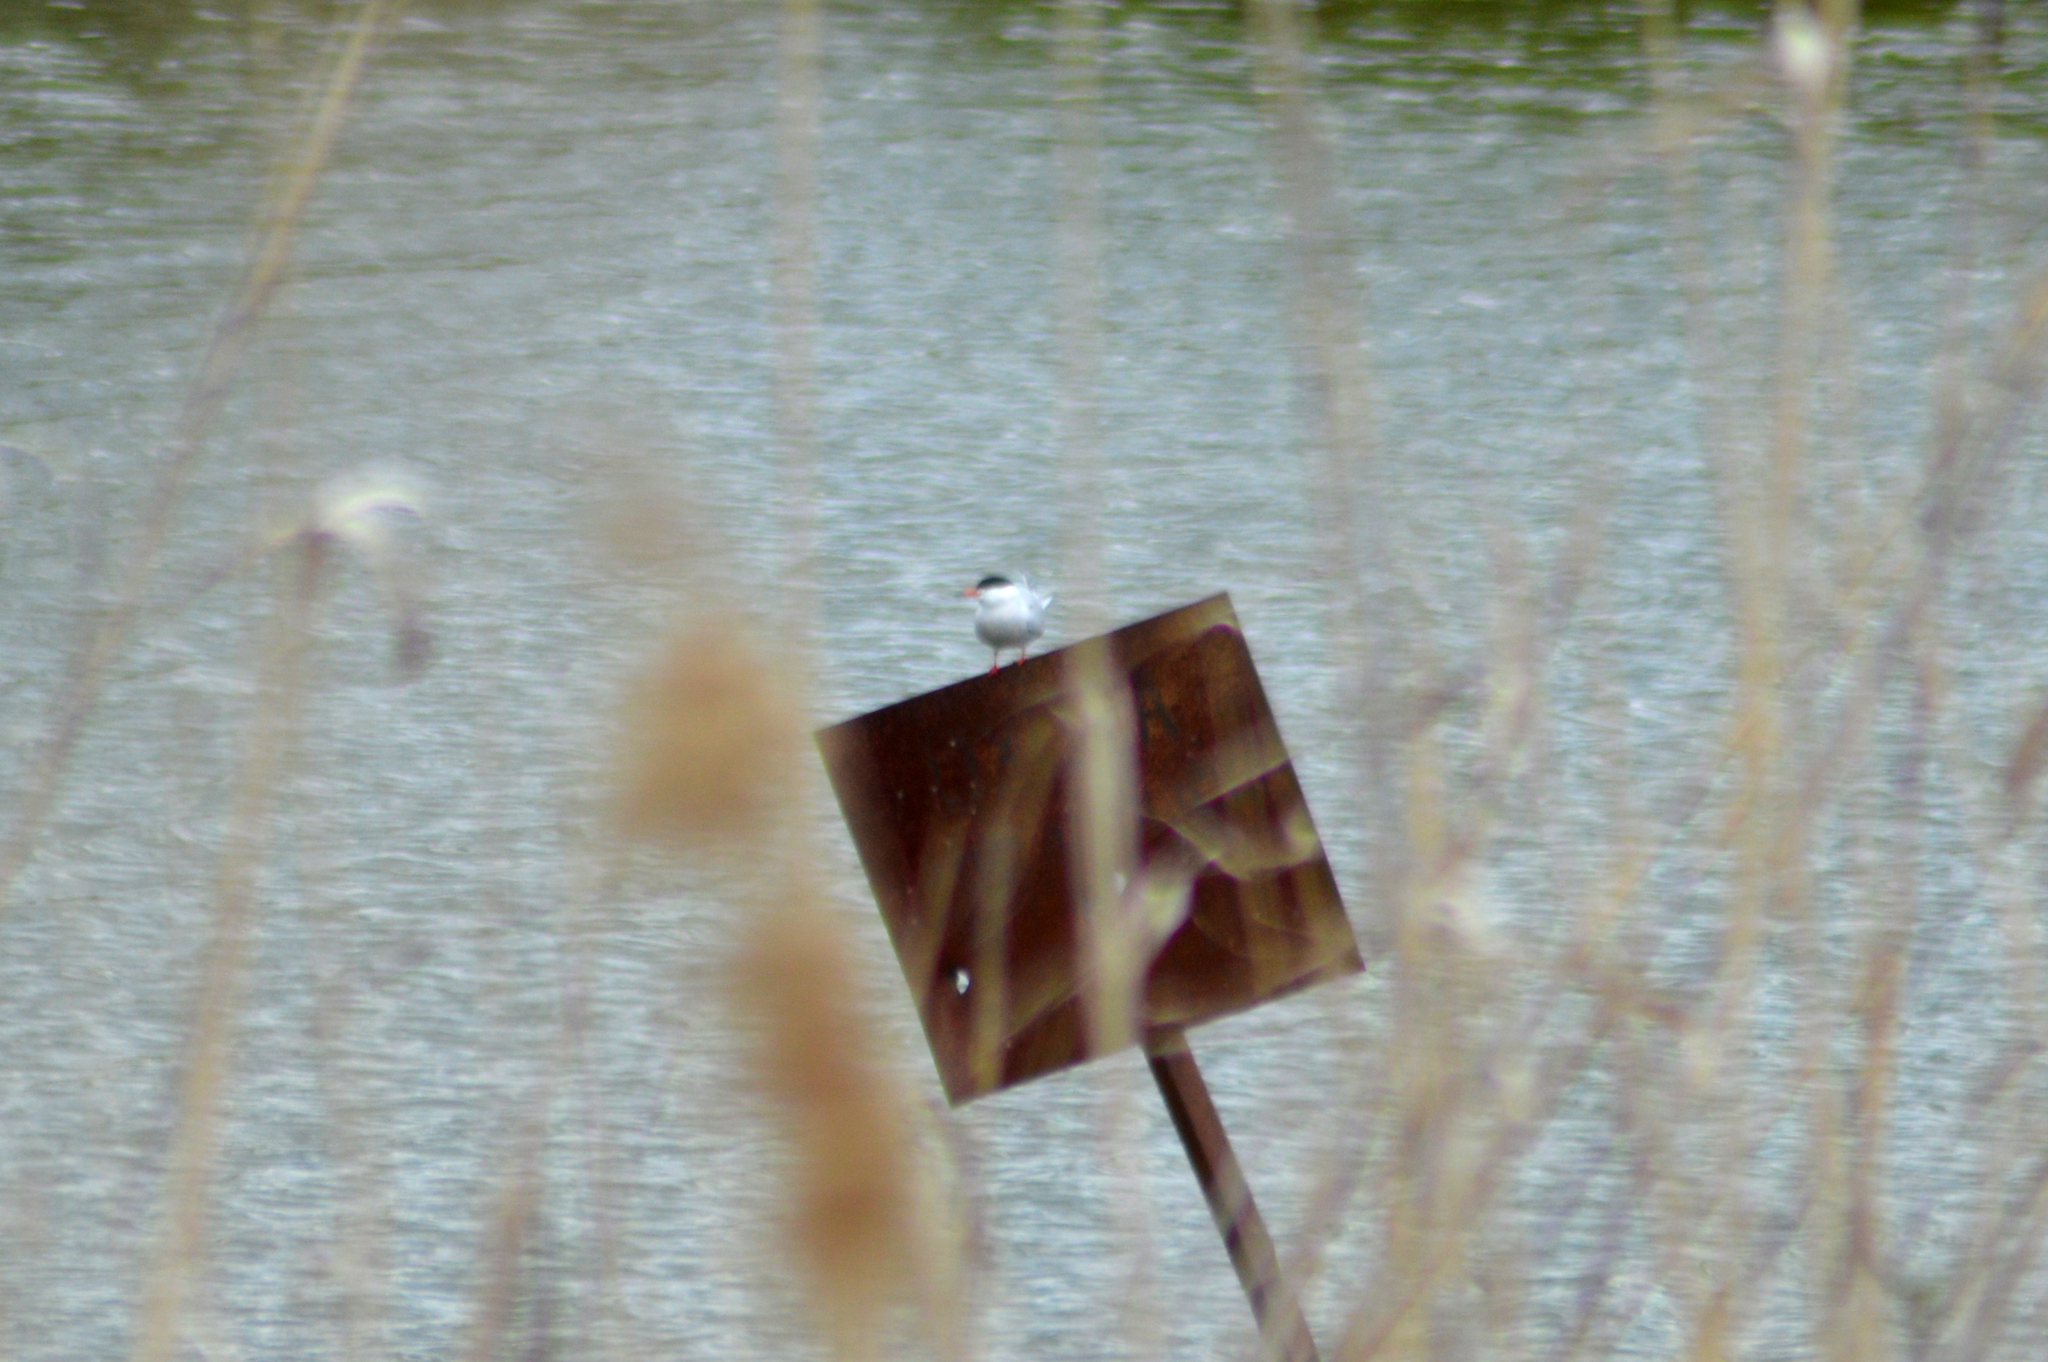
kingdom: Animalia
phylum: Chordata
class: Aves
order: Charadriiformes
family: Laridae
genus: Sterna
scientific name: Sterna hirundo
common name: Common tern
